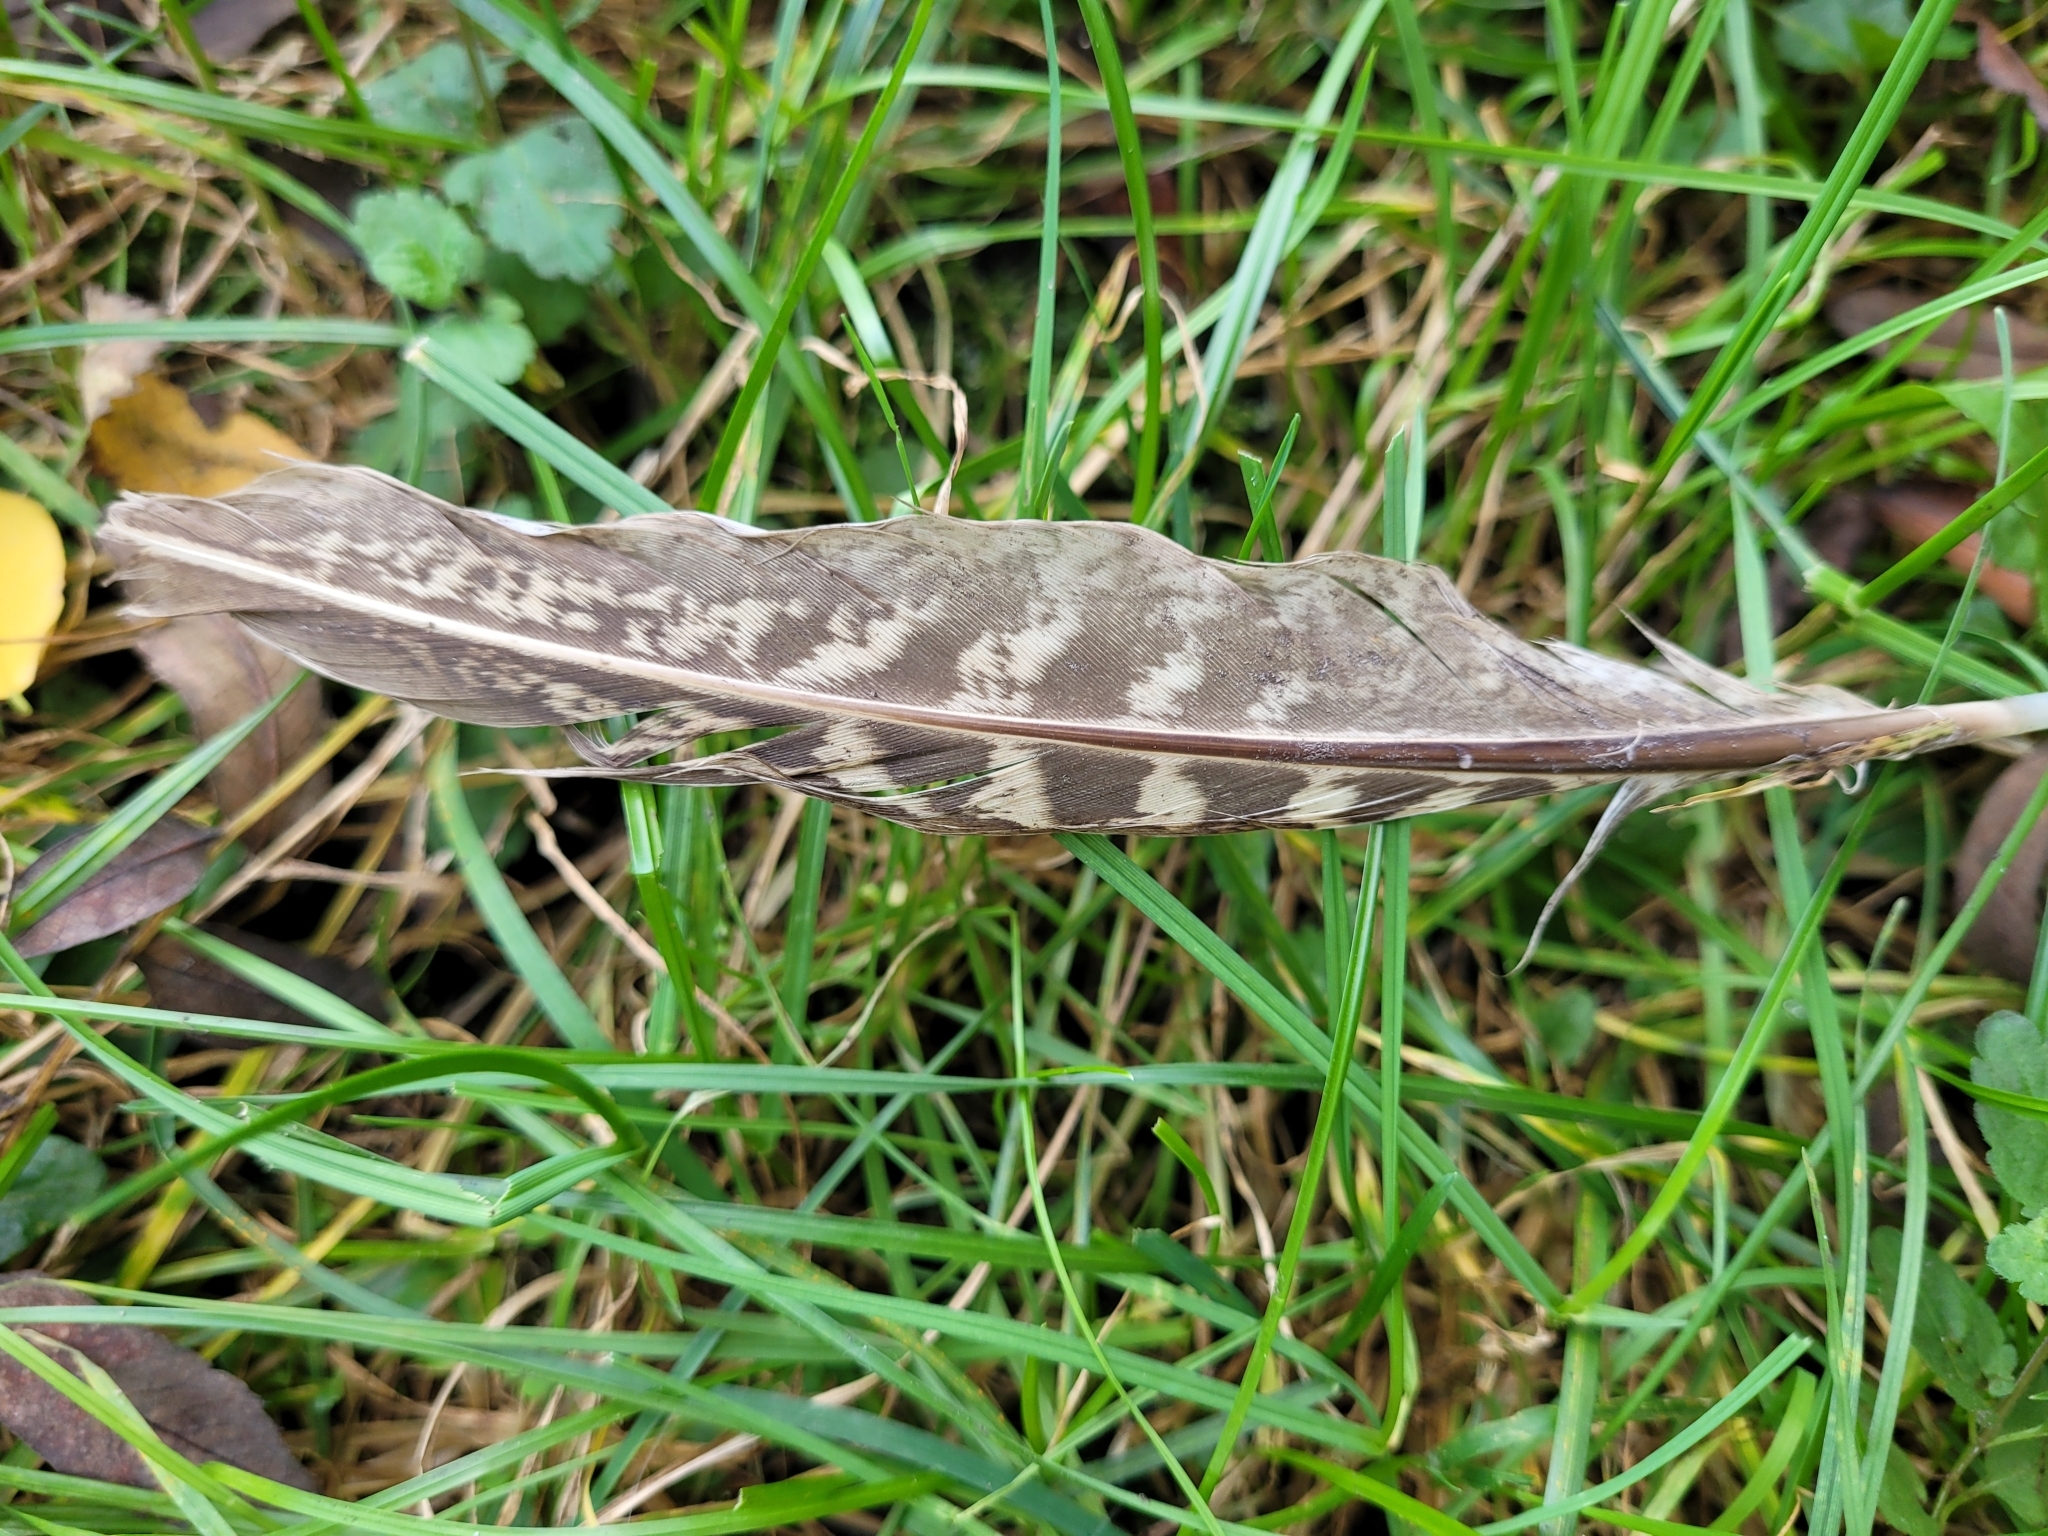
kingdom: Animalia
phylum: Chordata
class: Aves
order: Galliformes
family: Phasianidae
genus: Phasianus
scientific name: Phasianus colchicus
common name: Common pheasant
